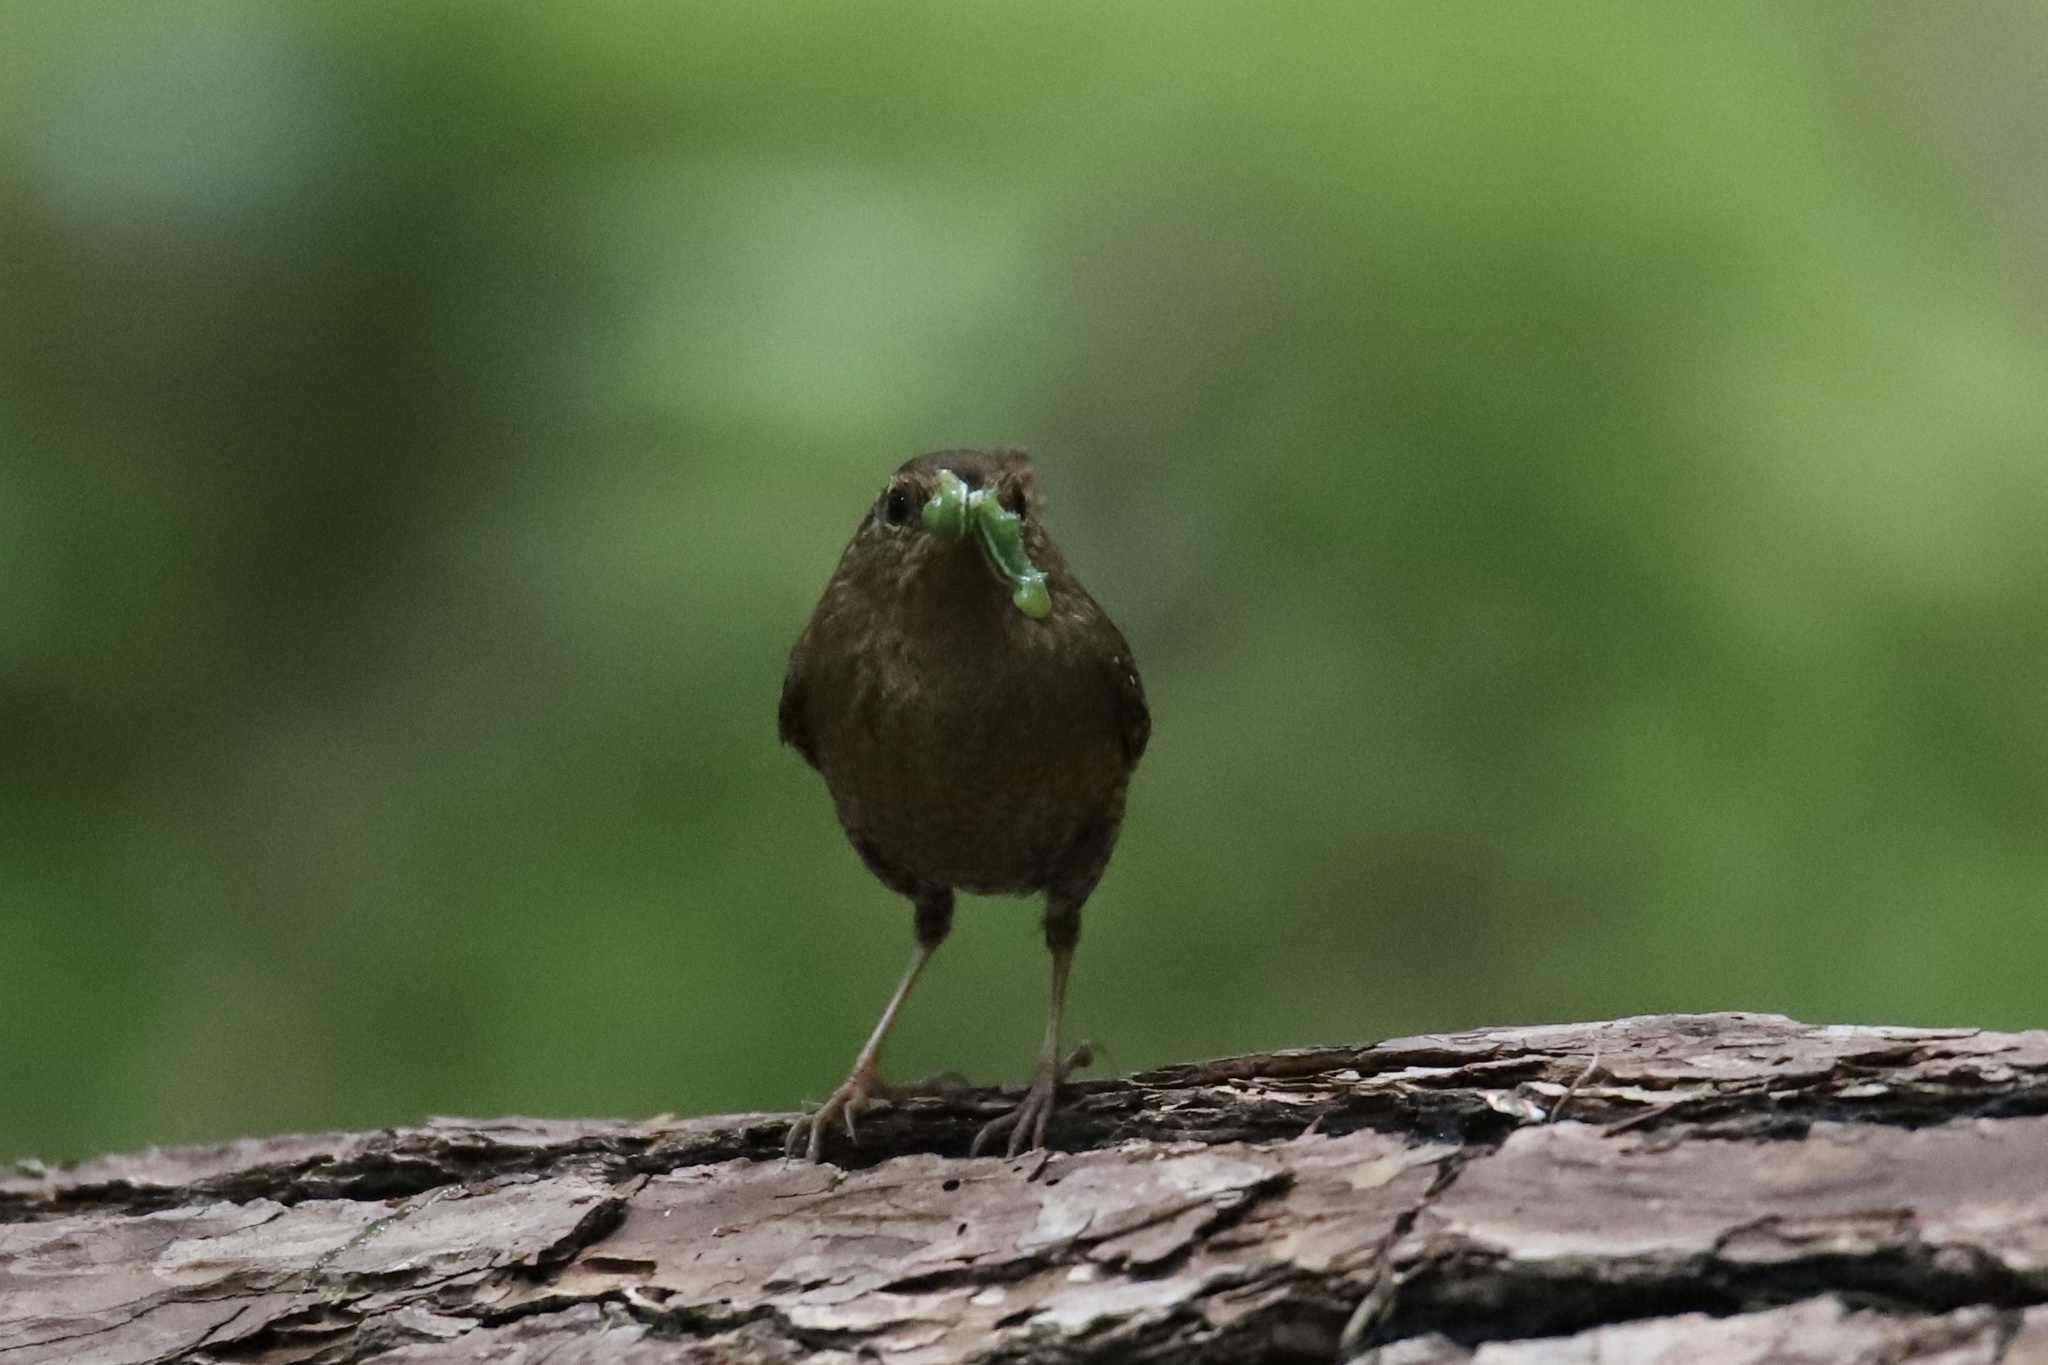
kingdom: Animalia
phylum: Chordata
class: Aves
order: Passeriformes
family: Troglodytidae
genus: Troglodytes
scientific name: Troglodytes pacificus
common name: Pacific wren
